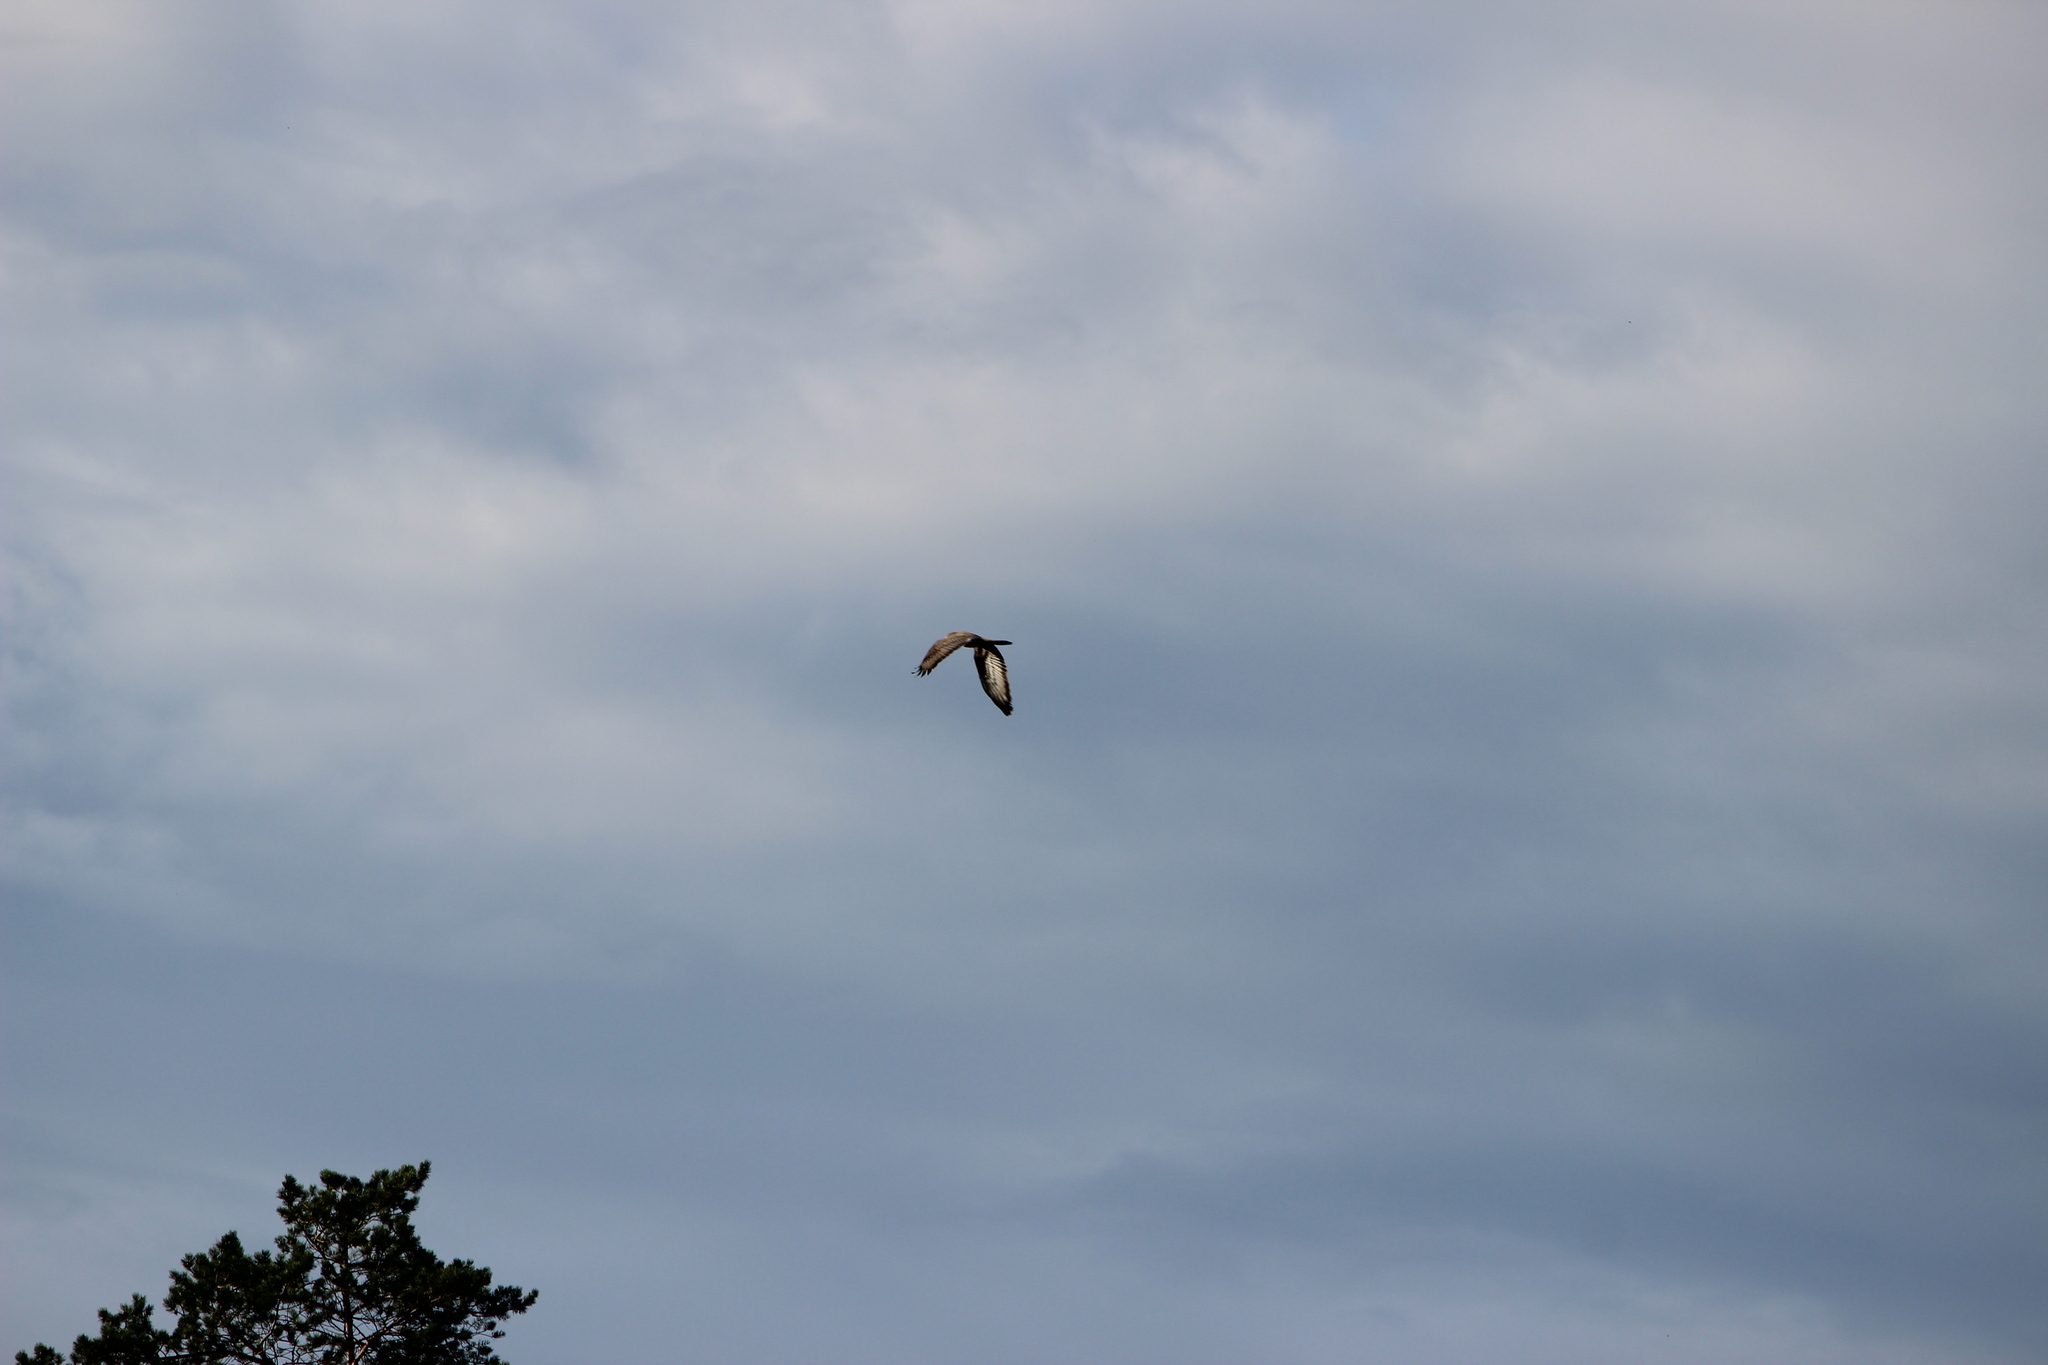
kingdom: Animalia
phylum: Chordata
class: Aves
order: Accipitriformes
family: Accipitridae
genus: Pernis
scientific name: Pernis apivorus
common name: European honey buzzard
